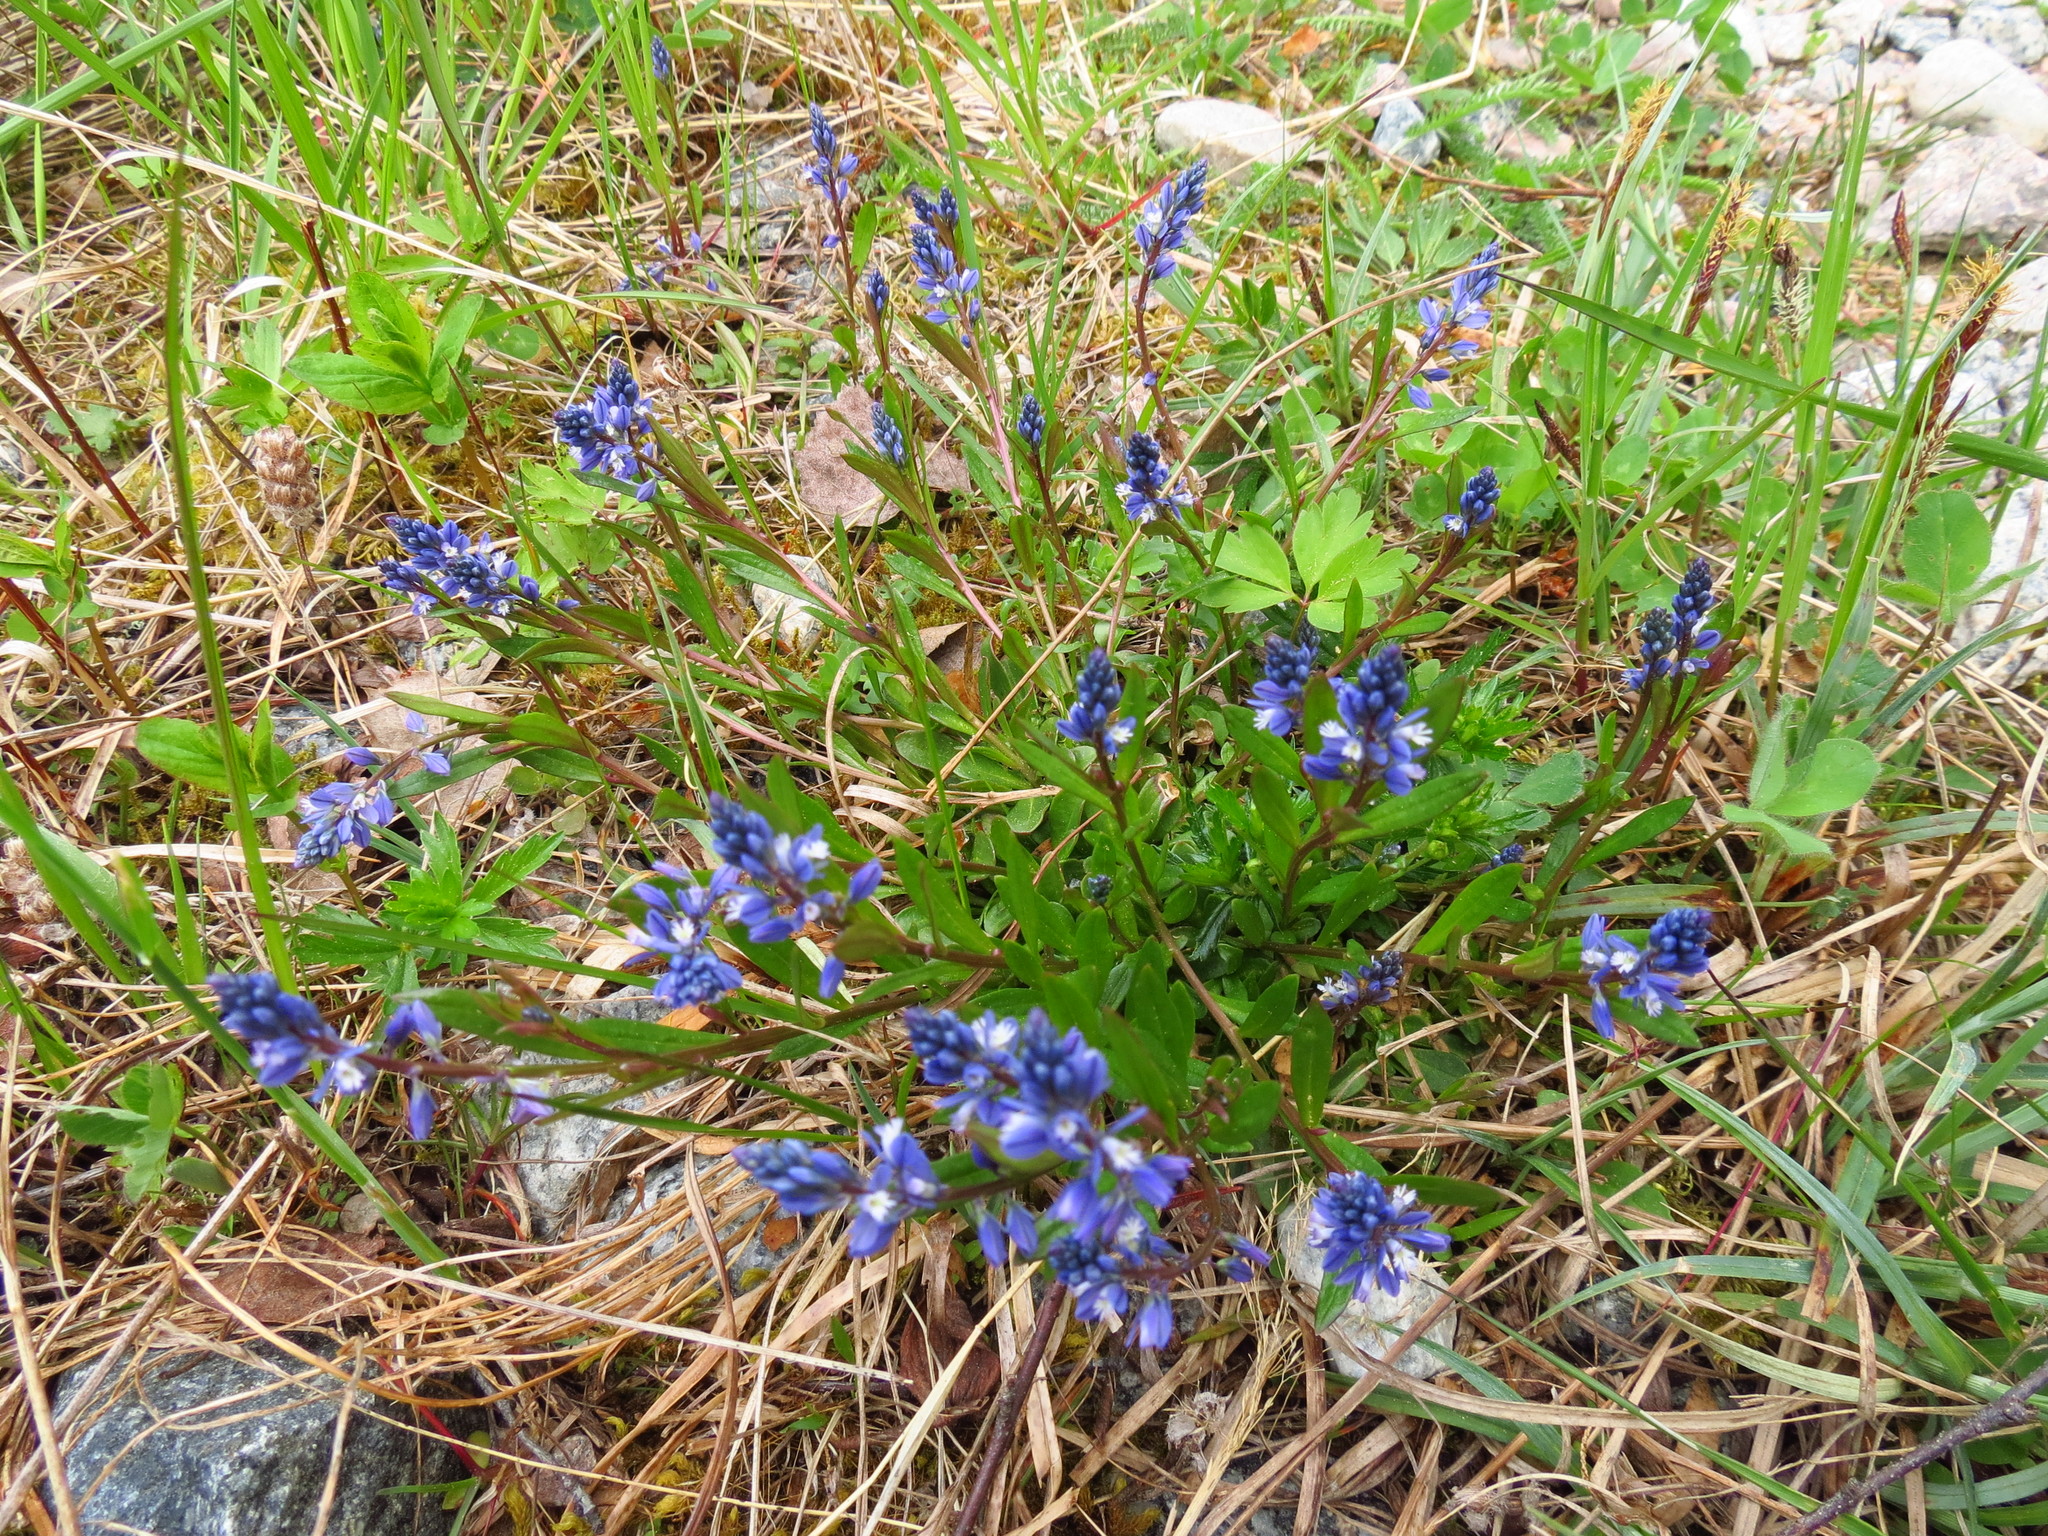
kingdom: Plantae
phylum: Tracheophyta
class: Magnoliopsida
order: Fabales
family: Polygalaceae
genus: Polygala
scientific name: Polygala vulgaris
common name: Common milkwort
